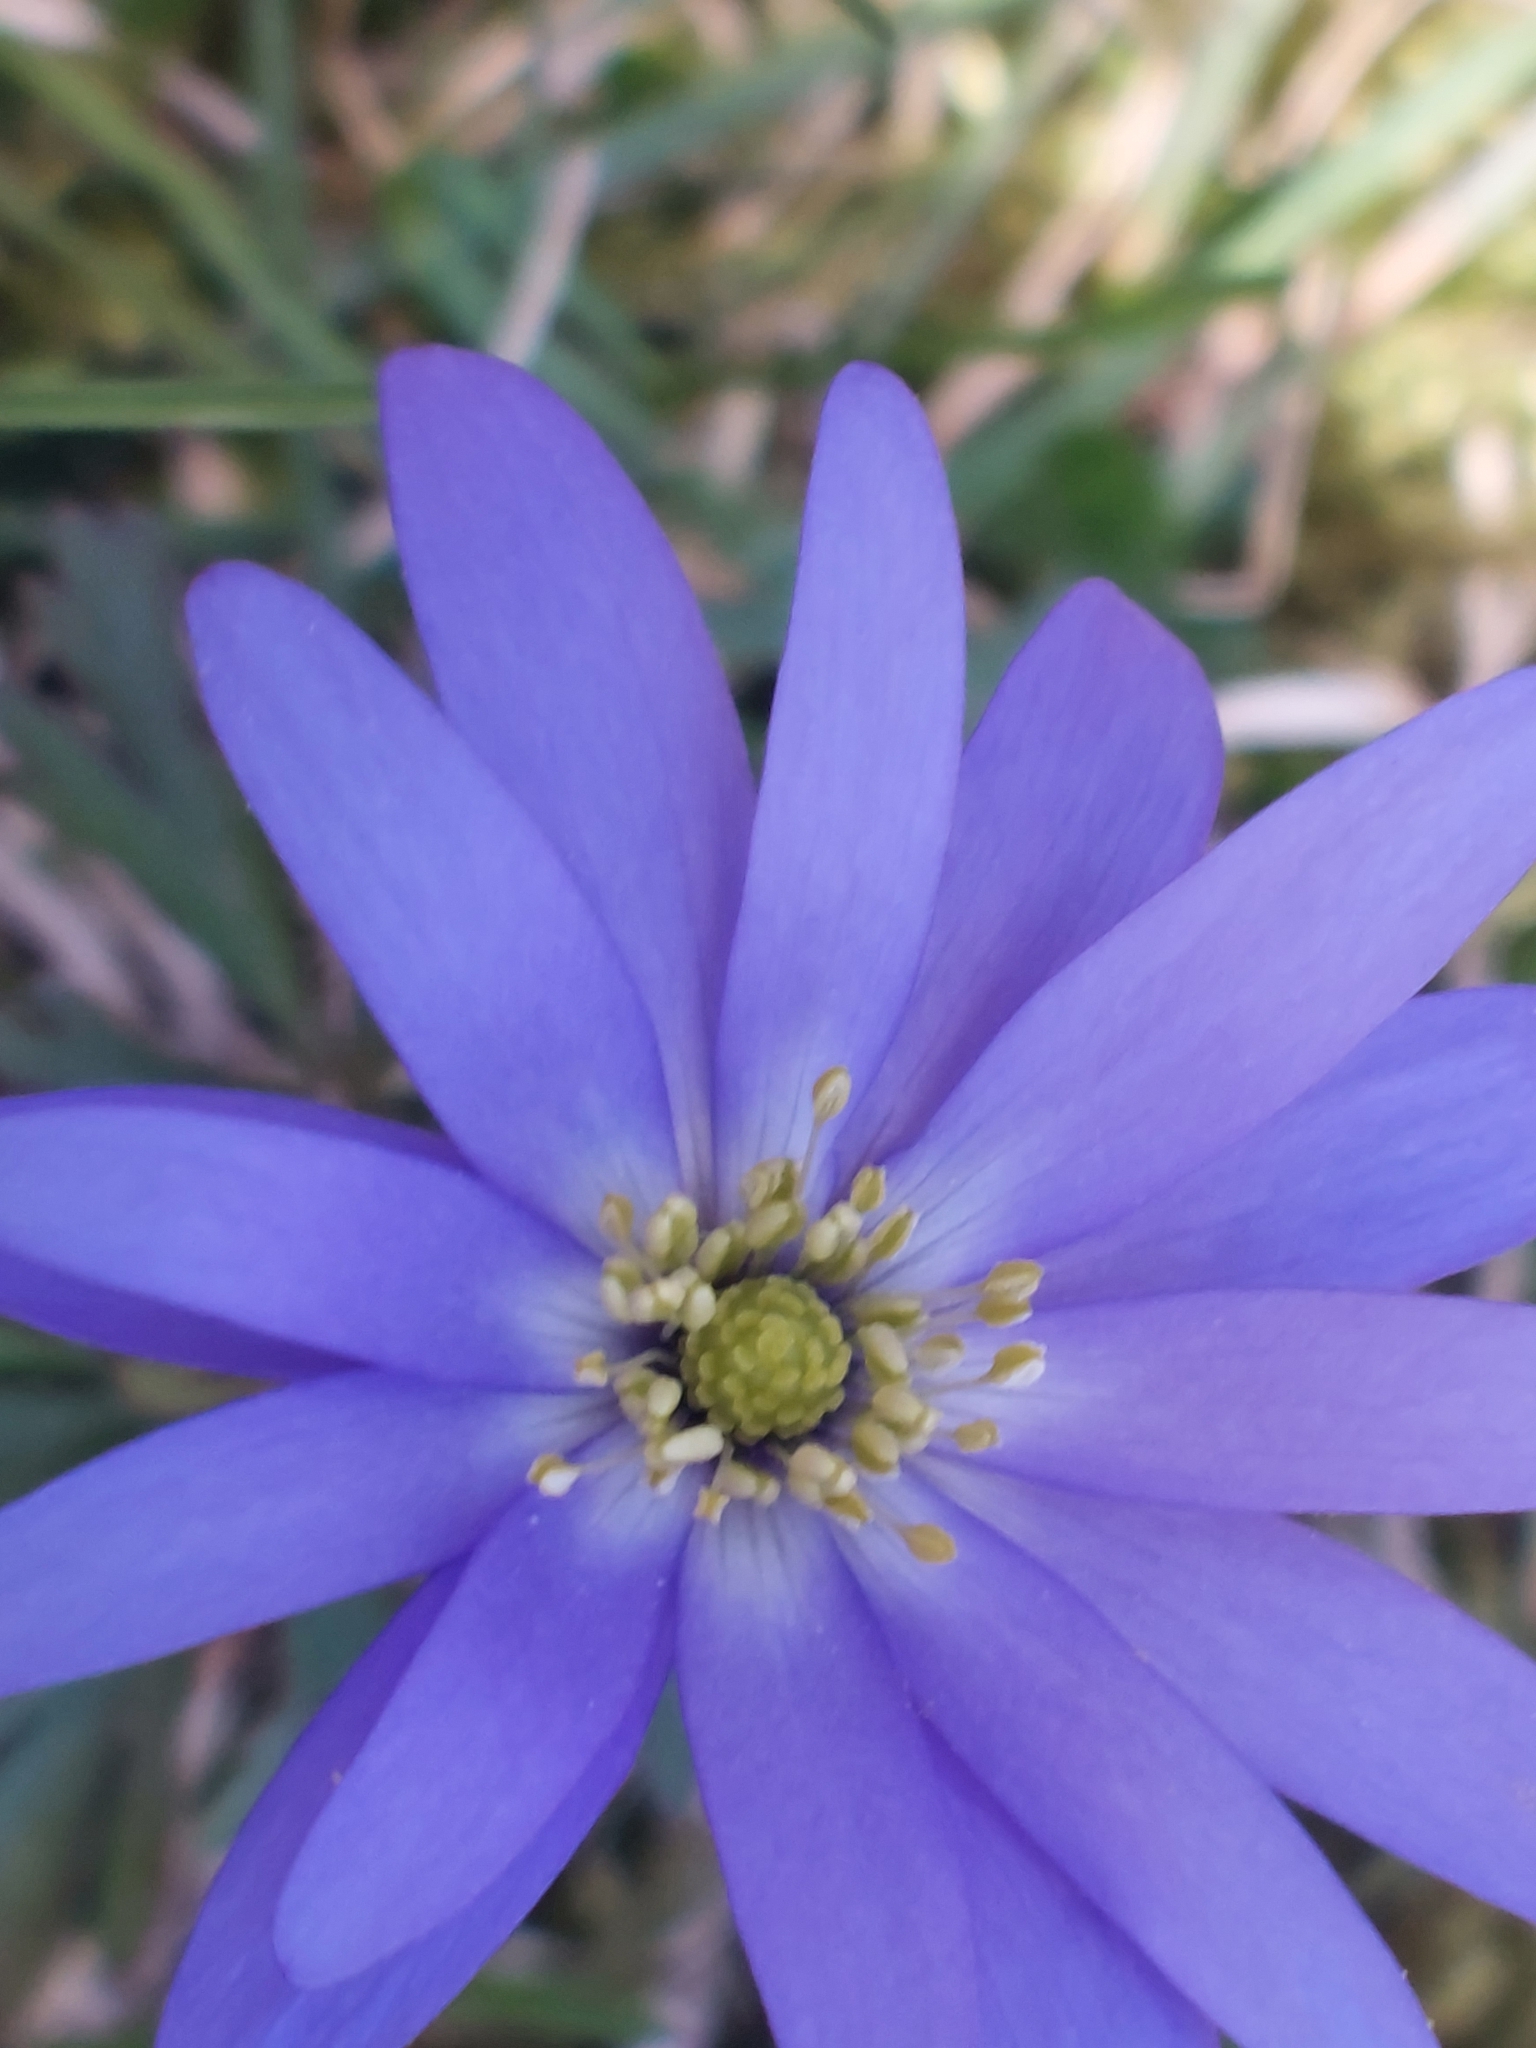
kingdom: Plantae
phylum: Tracheophyta
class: Magnoliopsida
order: Ranunculales
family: Ranunculaceae
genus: Anemone
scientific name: Anemone blanda
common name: Balkan anemone
